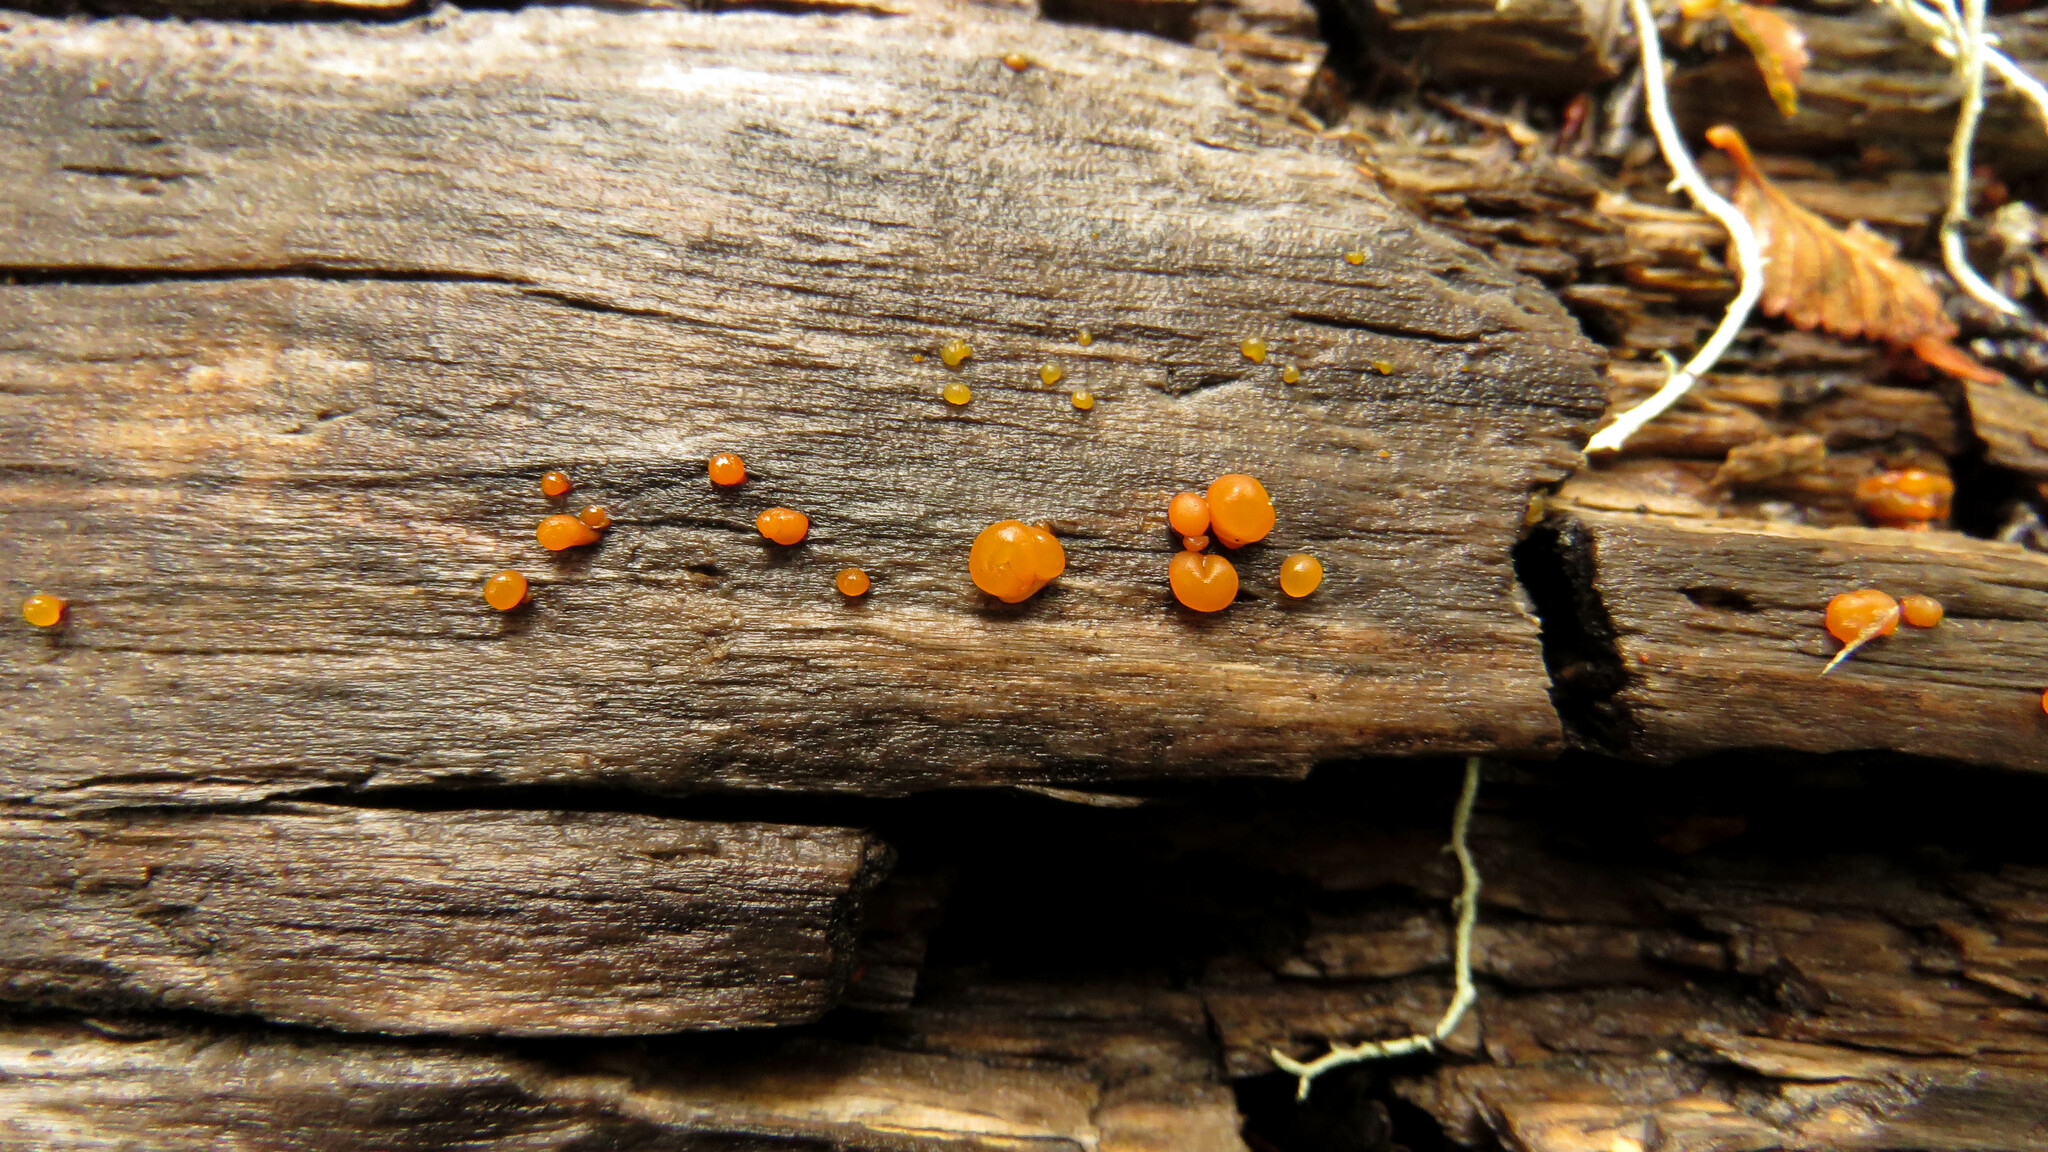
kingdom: Fungi
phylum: Basidiomycota
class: Dacrymycetes
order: Dacrymycetales
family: Dacrymycetaceae
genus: Guepiniopsis
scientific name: Guepiniopsis alpina
